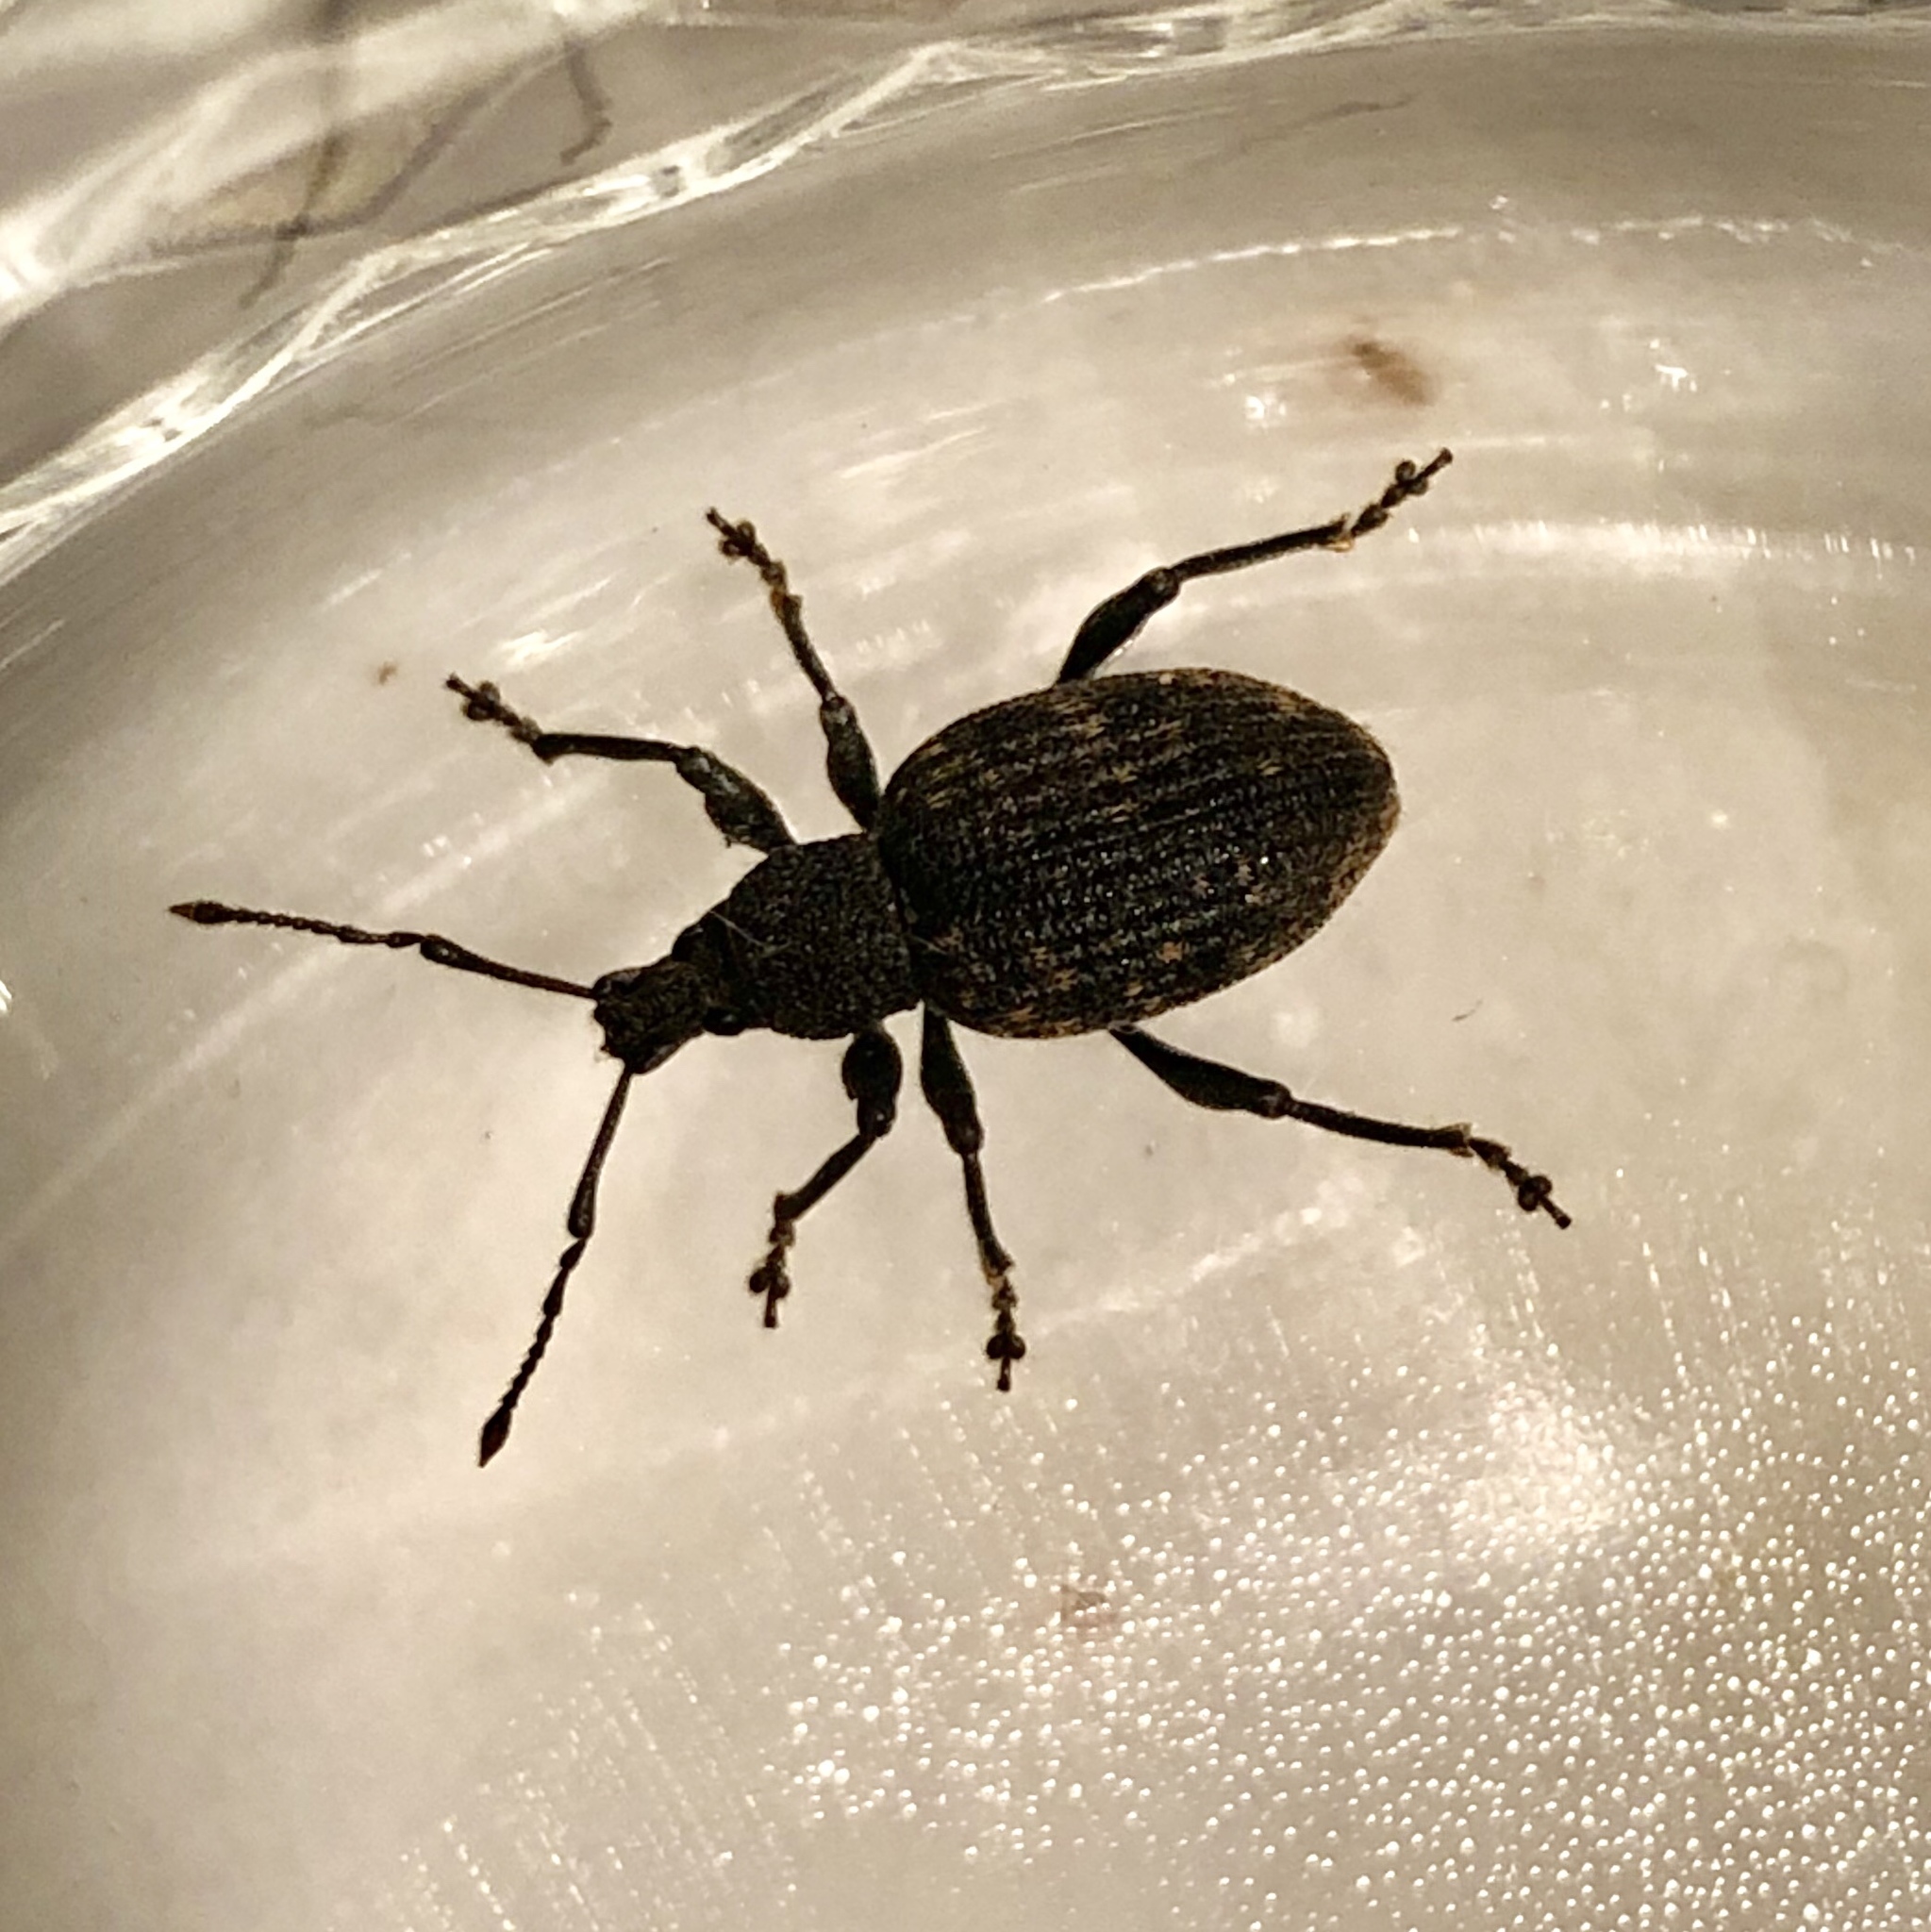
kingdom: Animalia
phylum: Arthropoda
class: Insecta
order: Coleoptera
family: Curculionidae
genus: Otiorhynchus
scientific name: Otiorhynchus sulcatus
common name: Black vine weevil
